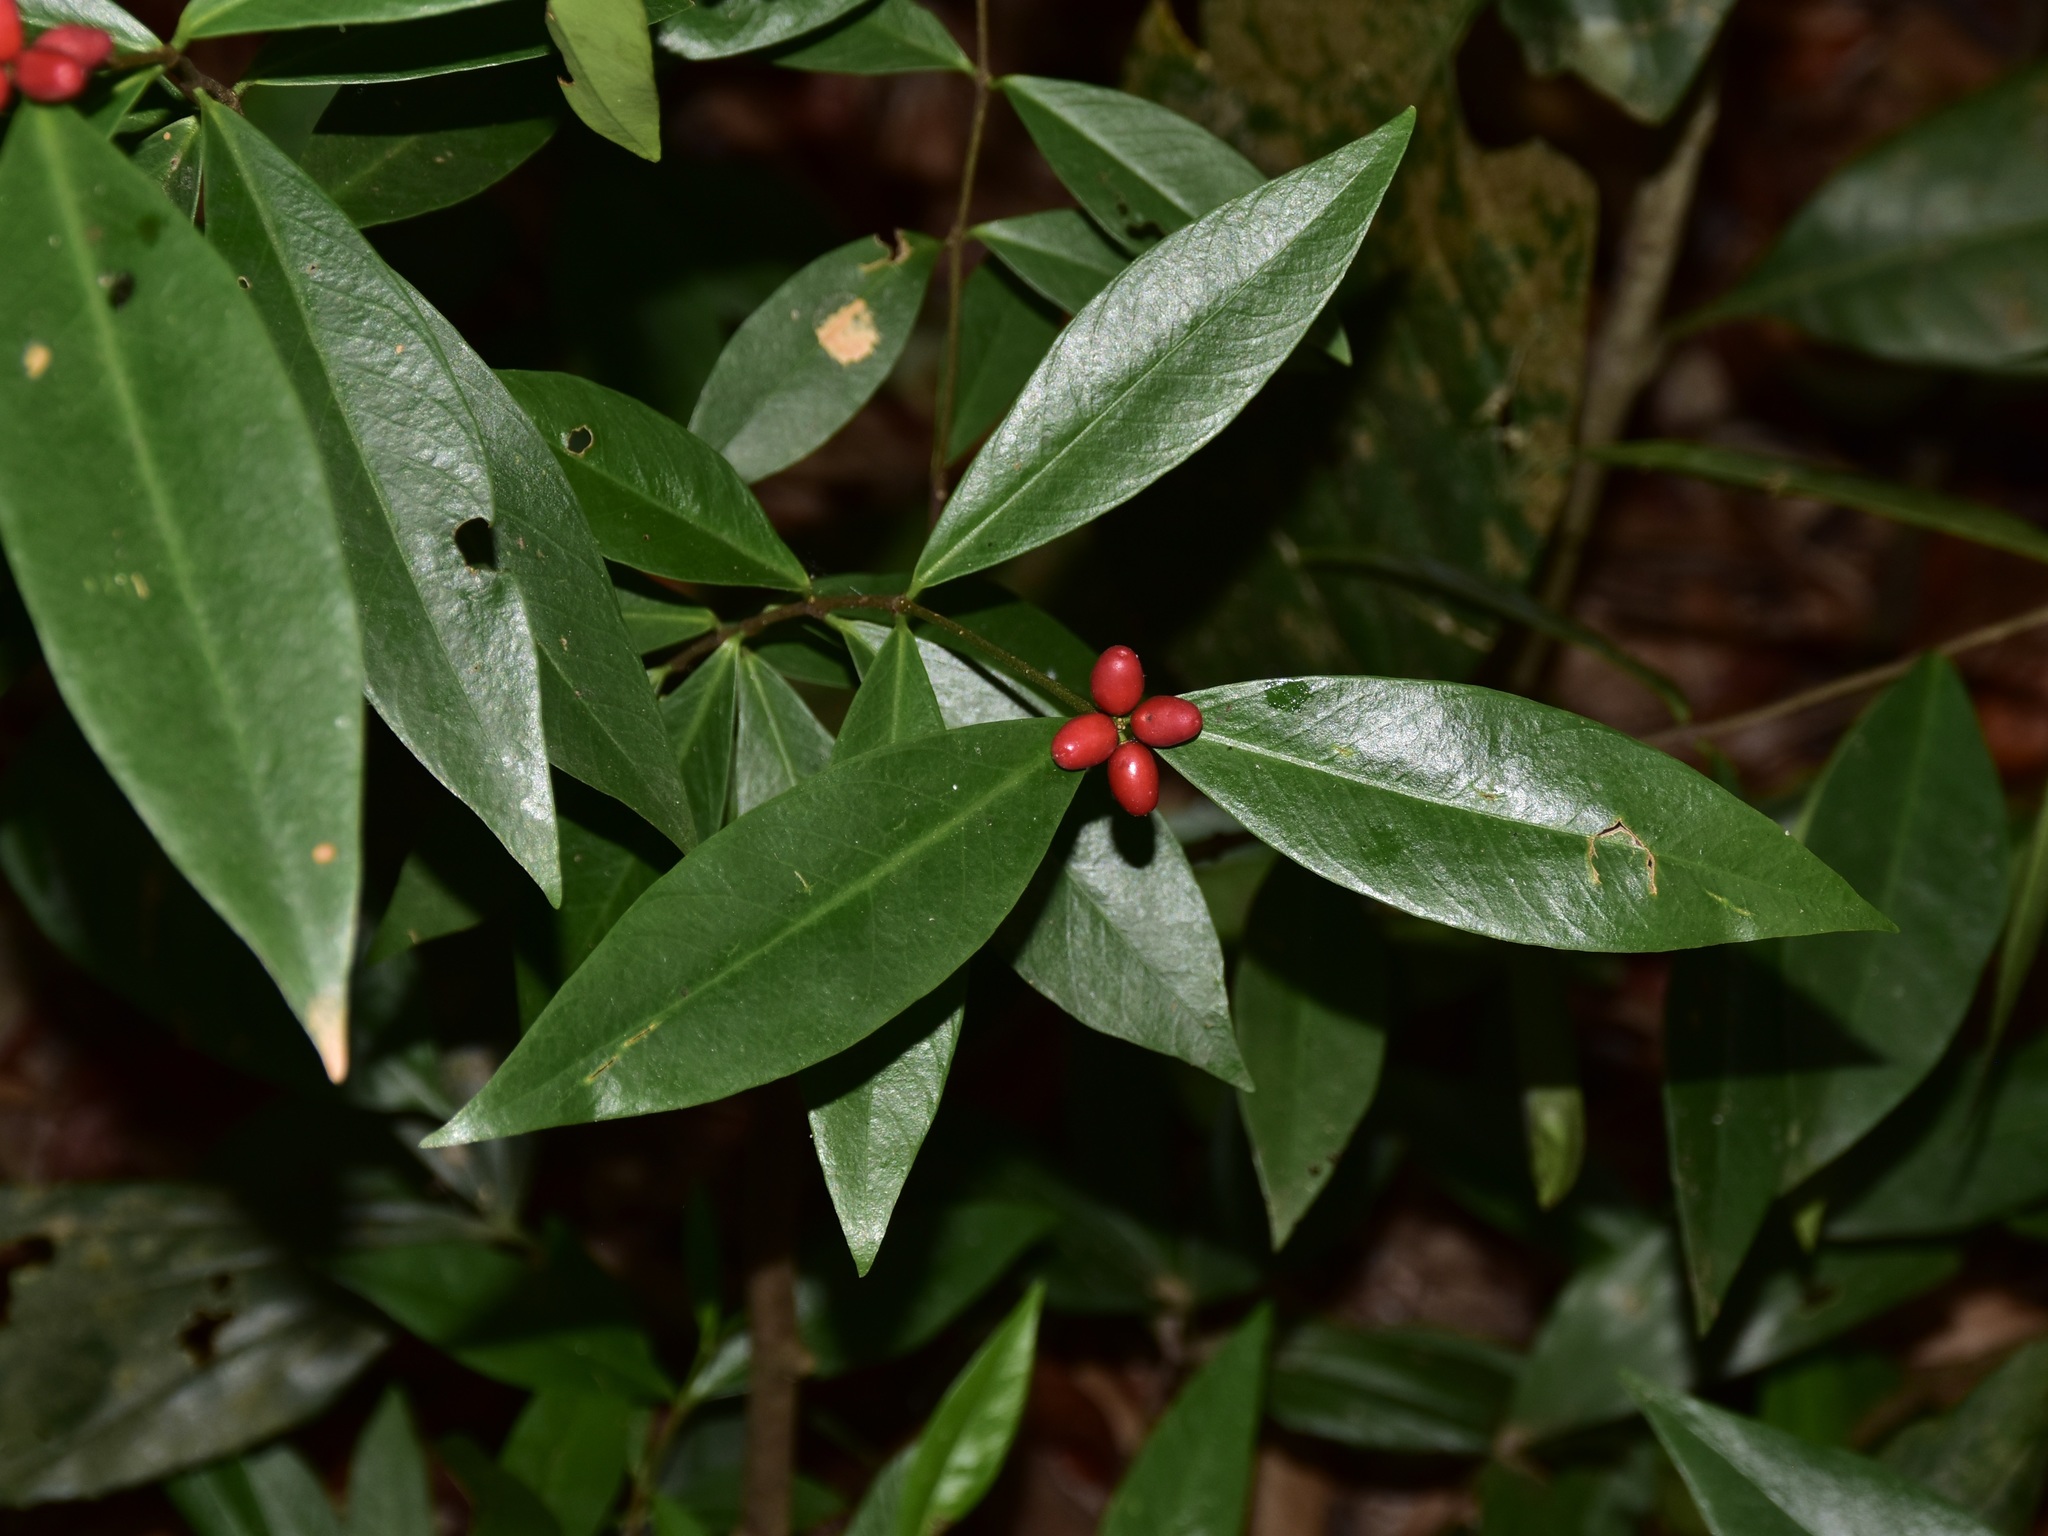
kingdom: Plantae
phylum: Tracheophyta
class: Magnoliopsida
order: Malvales
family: Thymelaeaceae
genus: Wikstroemia
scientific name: Wikstroemia ridleyi
